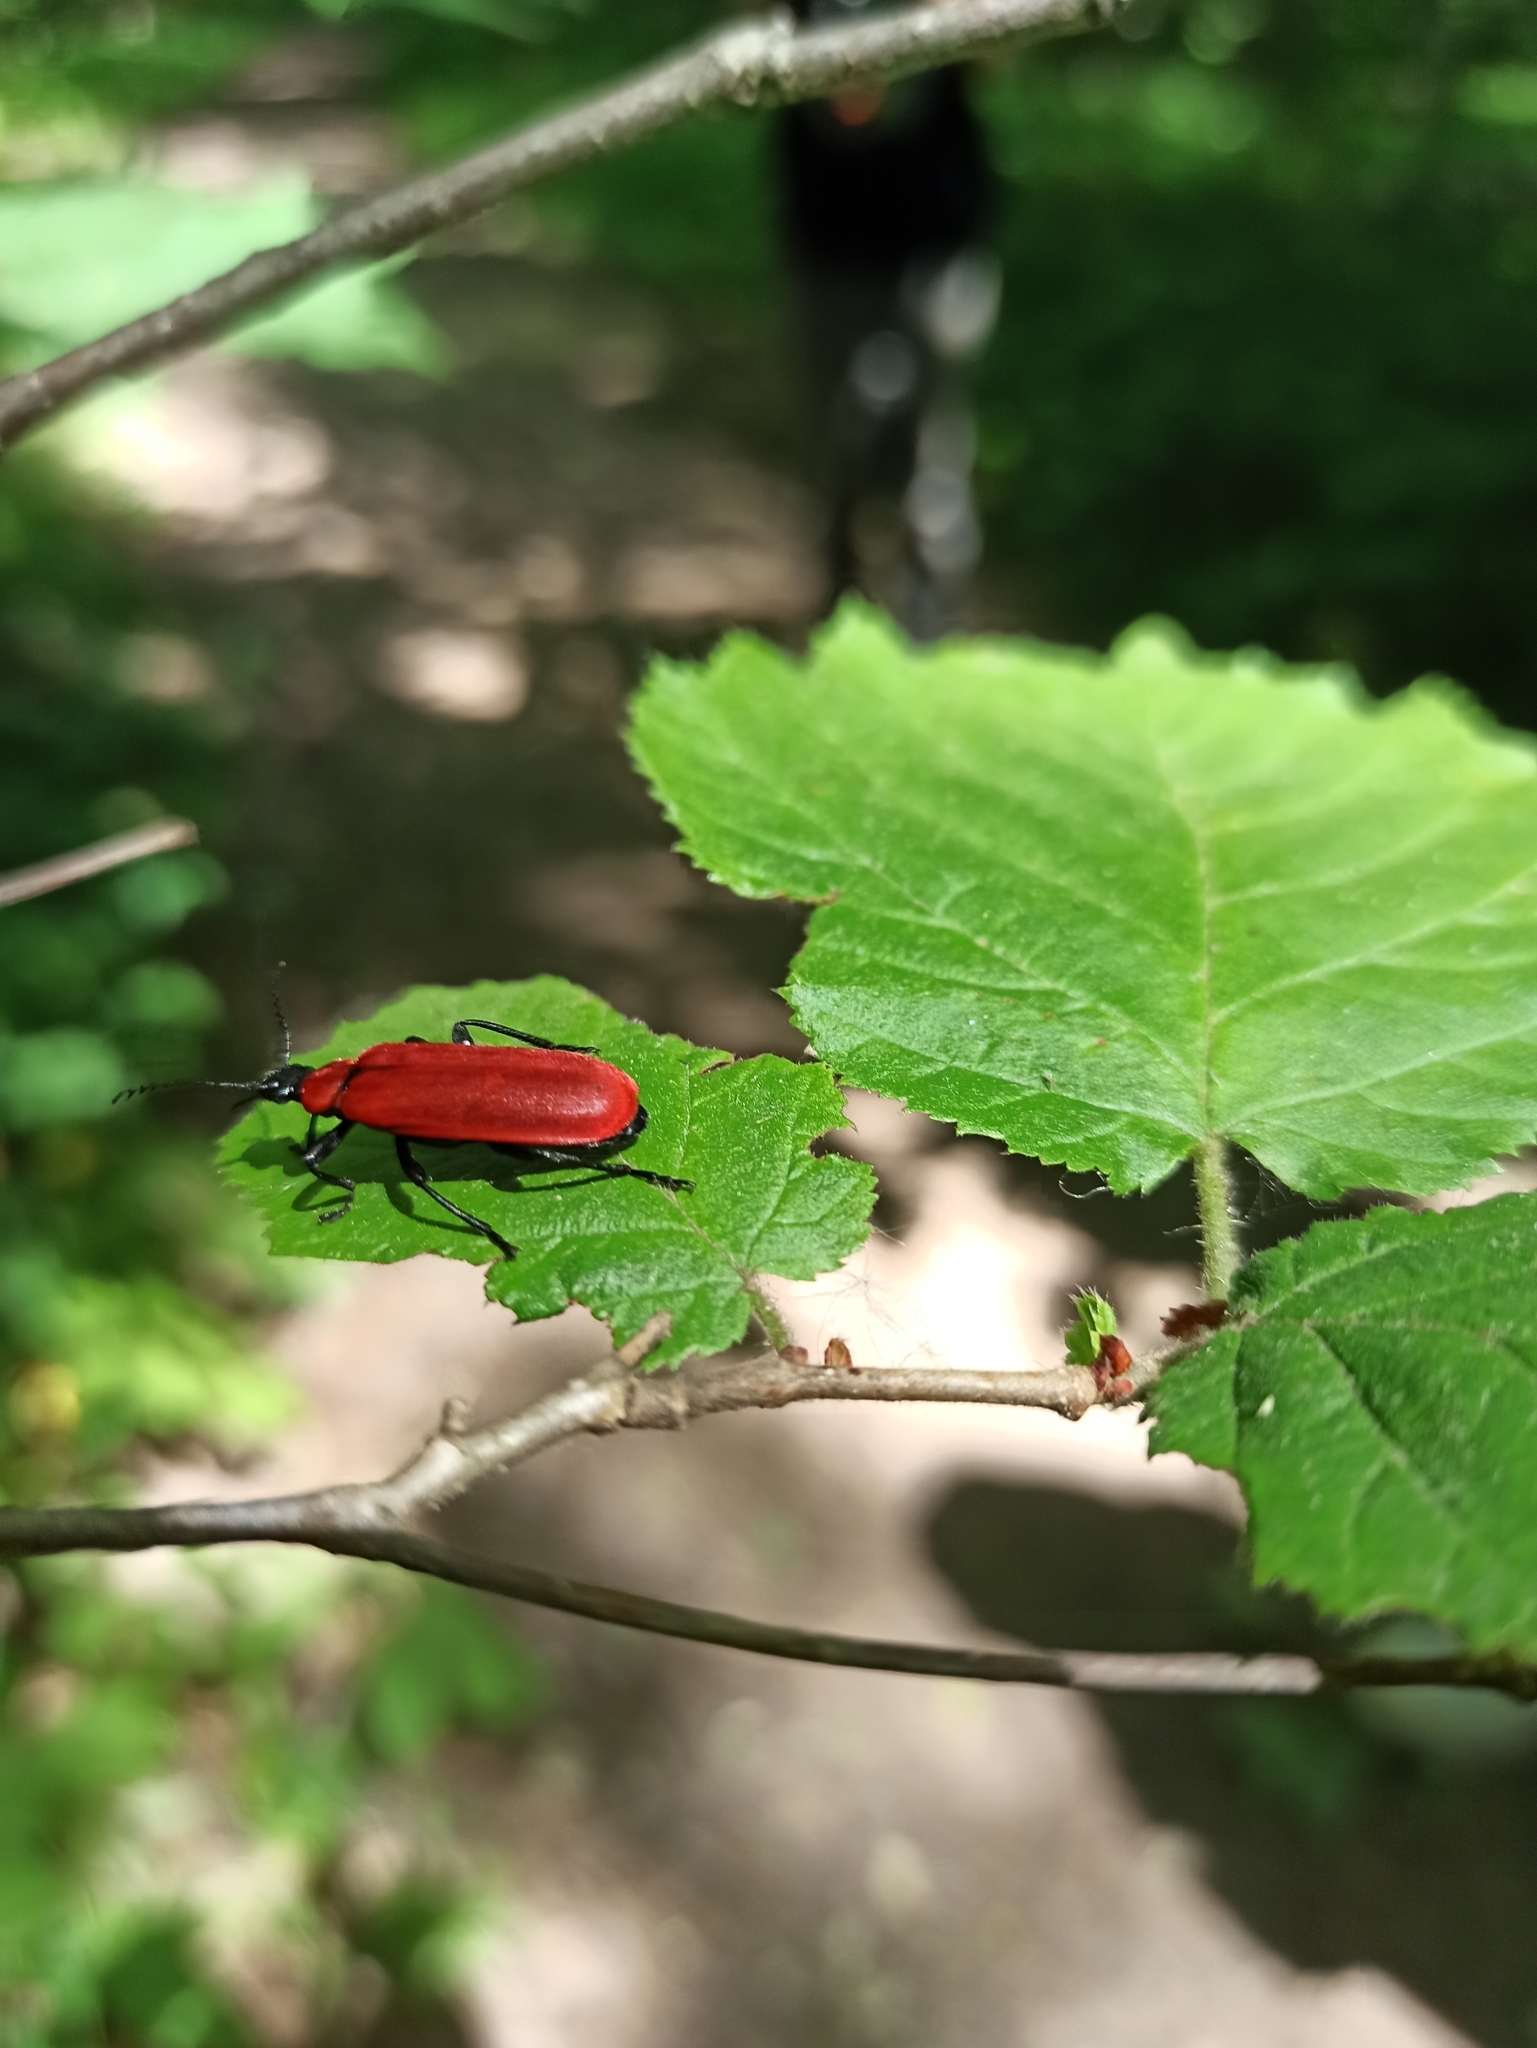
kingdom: Animalia
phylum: Arthropoda
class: Insecta
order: Coleoptera
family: Pyrochroidae
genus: Pyrochroa
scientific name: Pyrochroa coccinea
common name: Black-headed cardinal beetle
